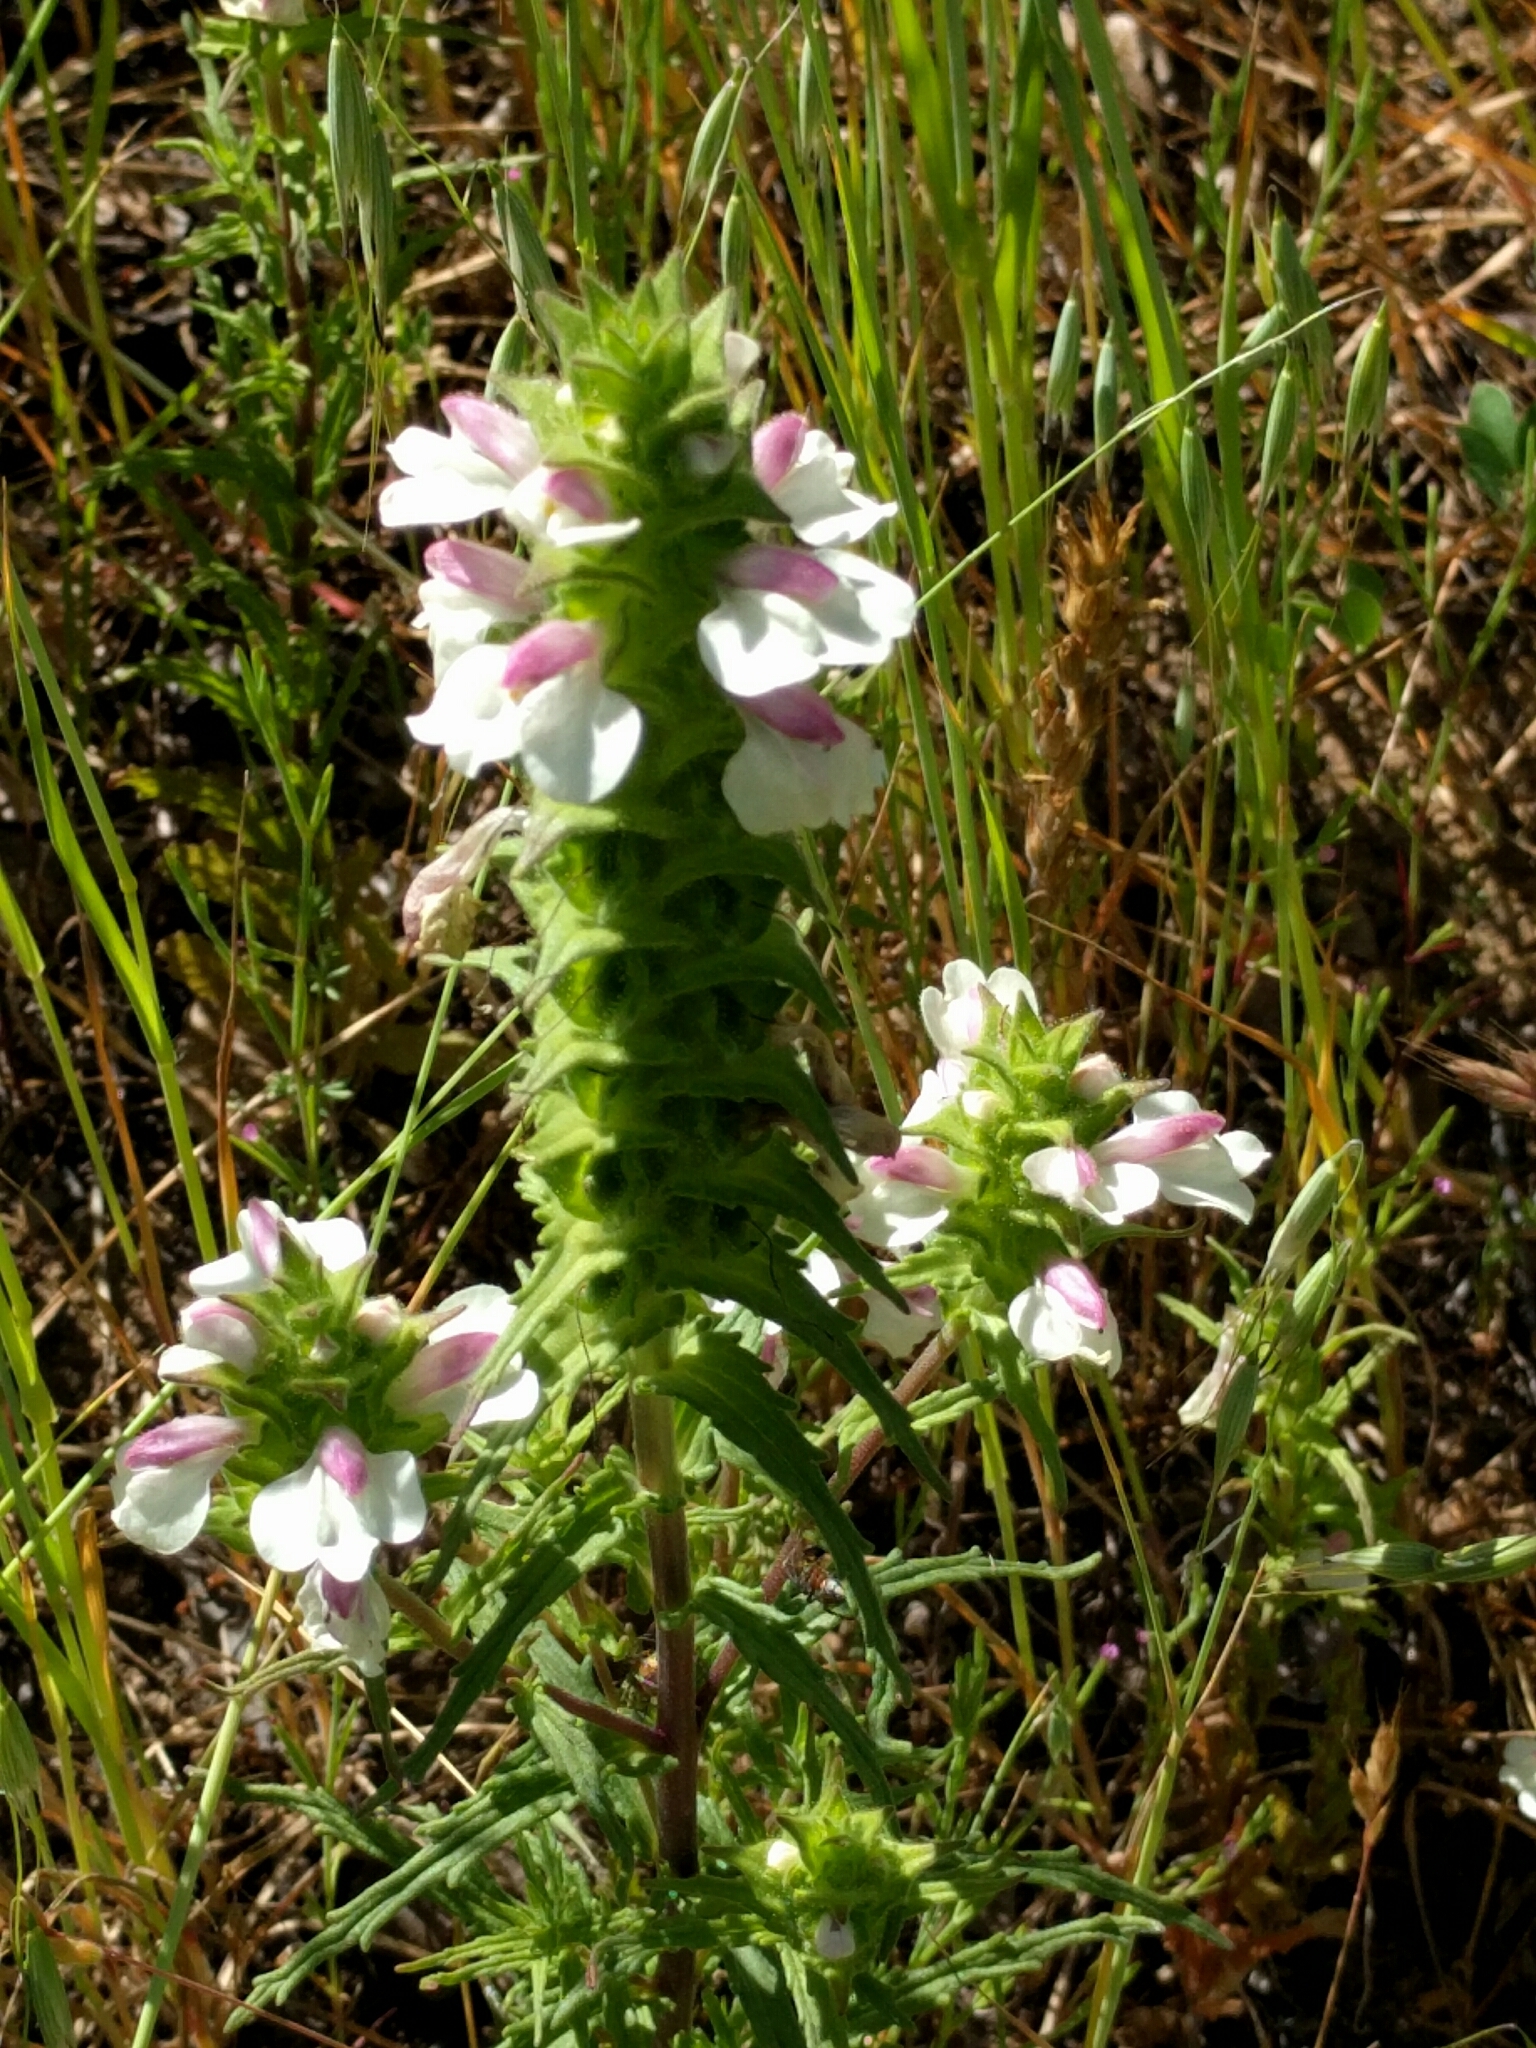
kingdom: Plantae
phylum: Tracheophyta
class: Magnoliopsida
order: Lamiales
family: Orobanchaceae
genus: Bellardia
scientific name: Bellardia trixago
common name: Mediterranean lineseed
